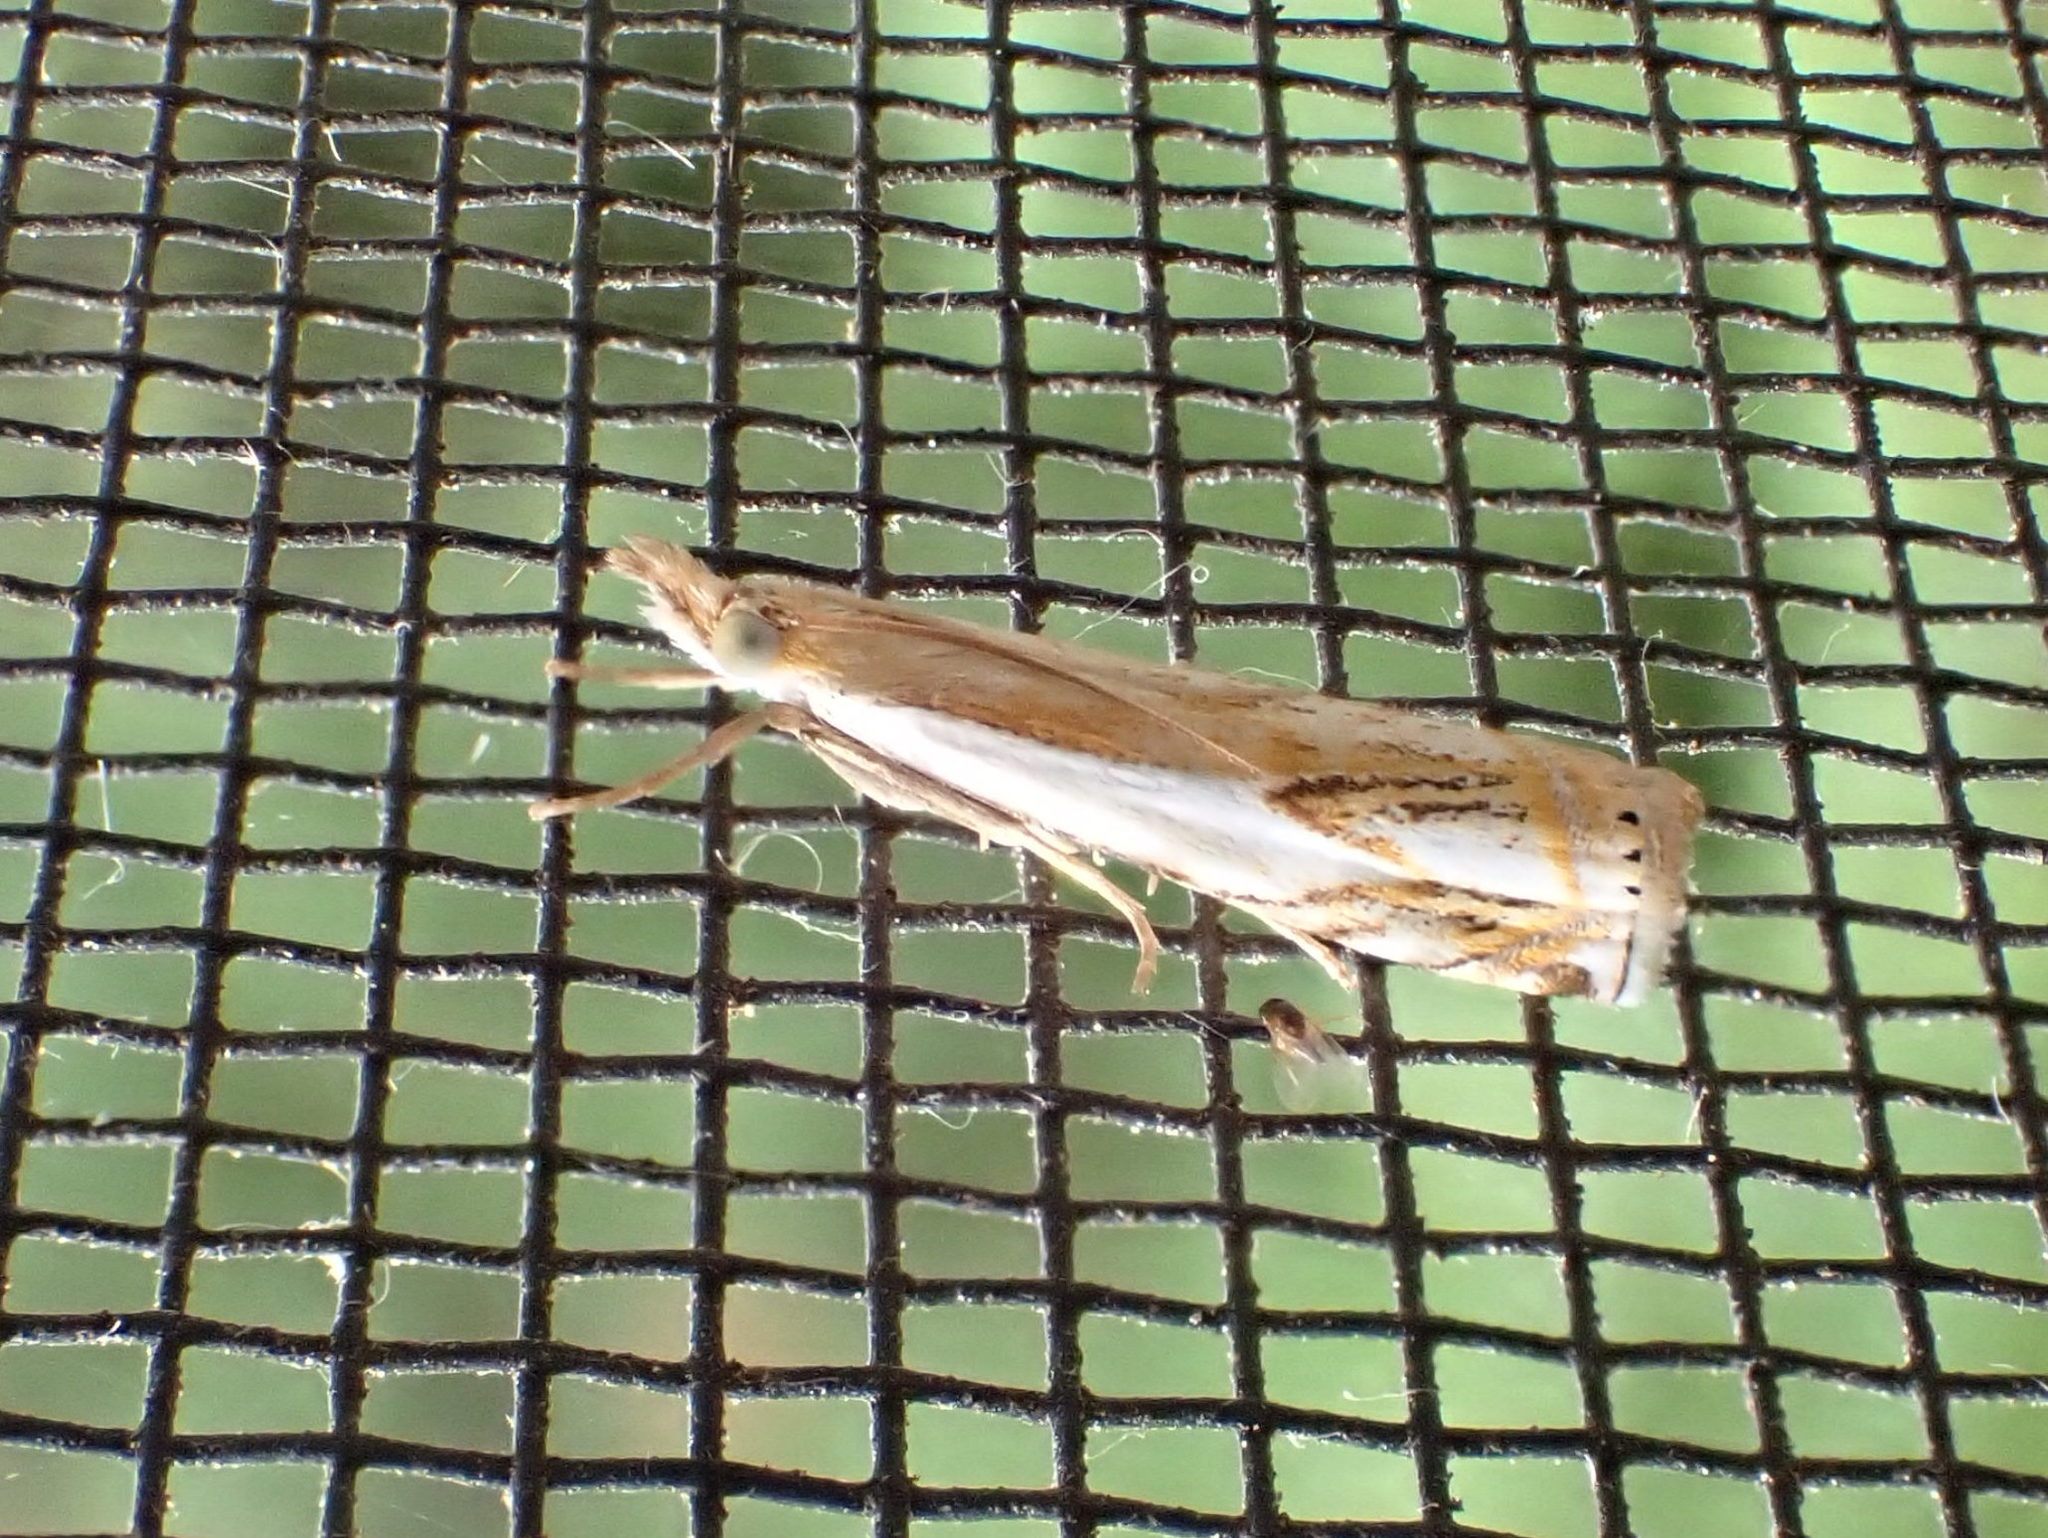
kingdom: Animalia
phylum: Arthropoda
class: Insecta
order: Lepidoptera
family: Crambidae
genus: Crambus
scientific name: Crambus agitatellus
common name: Double-banded grass-veneer
